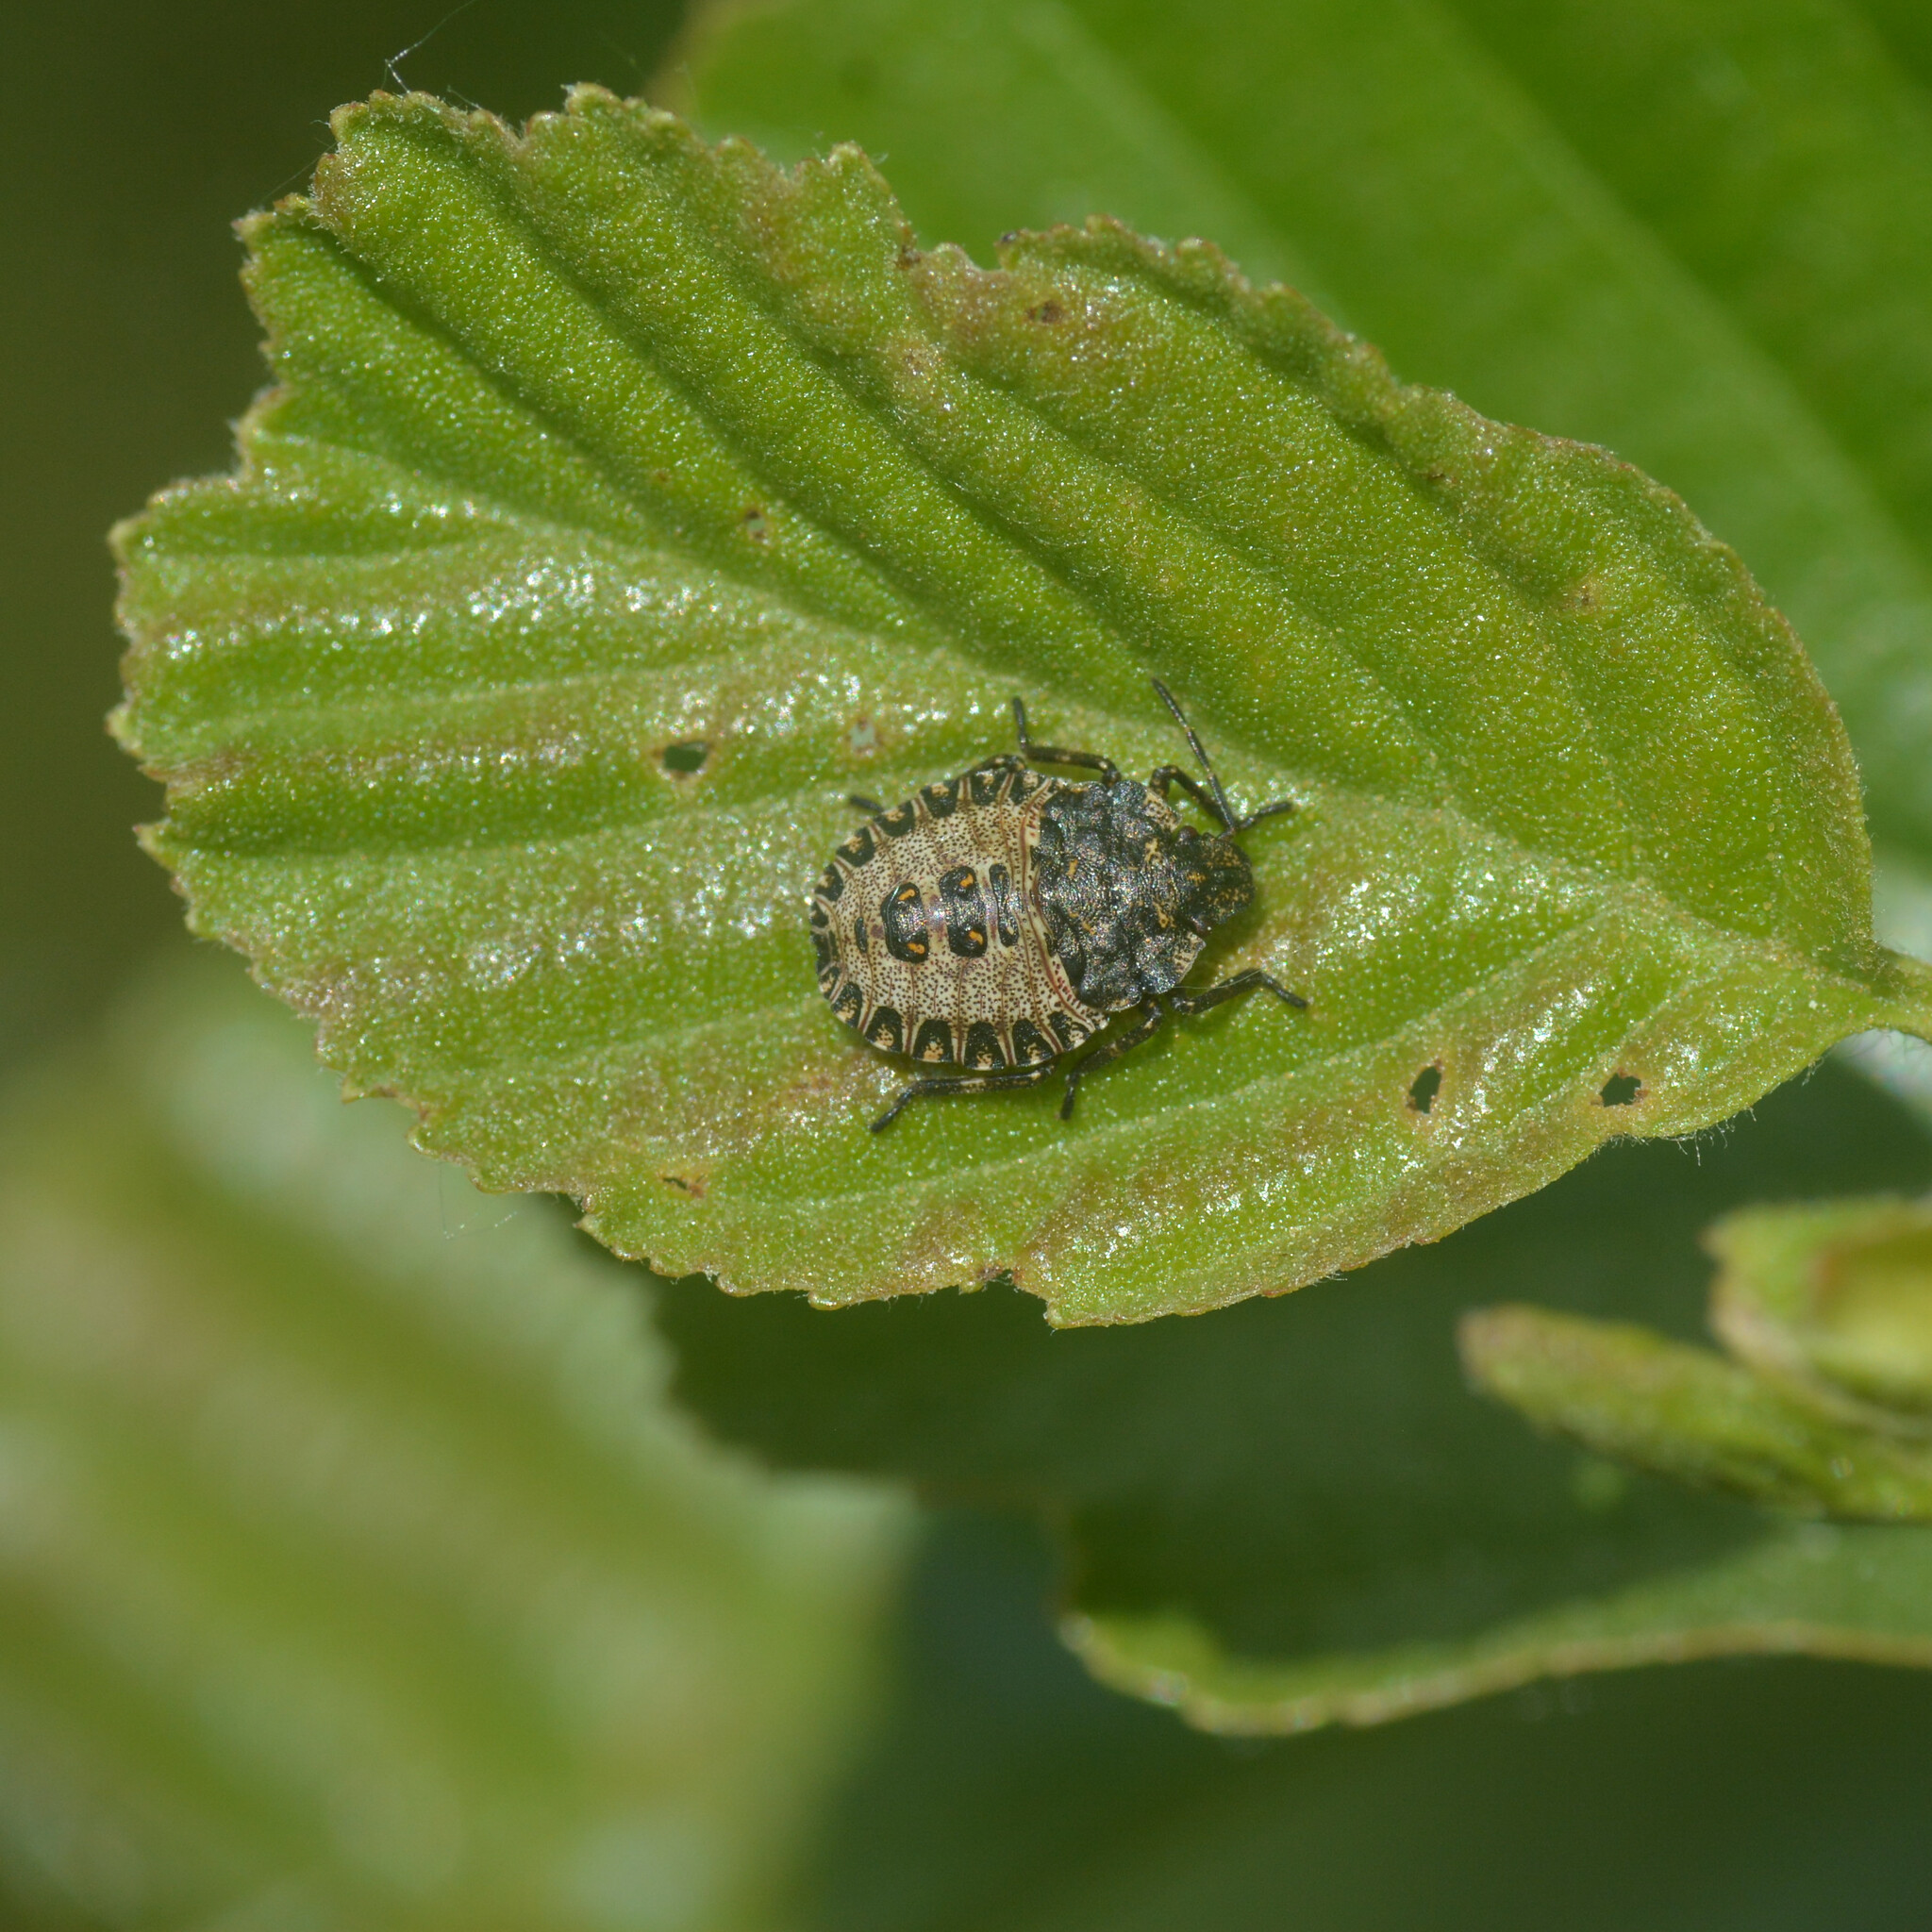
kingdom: Animalia
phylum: Arthropoda
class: Insecta
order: Hemiptera
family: Pentatomidae
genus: Pentatoma
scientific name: Pentatoma rufipes
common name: Forest bug
